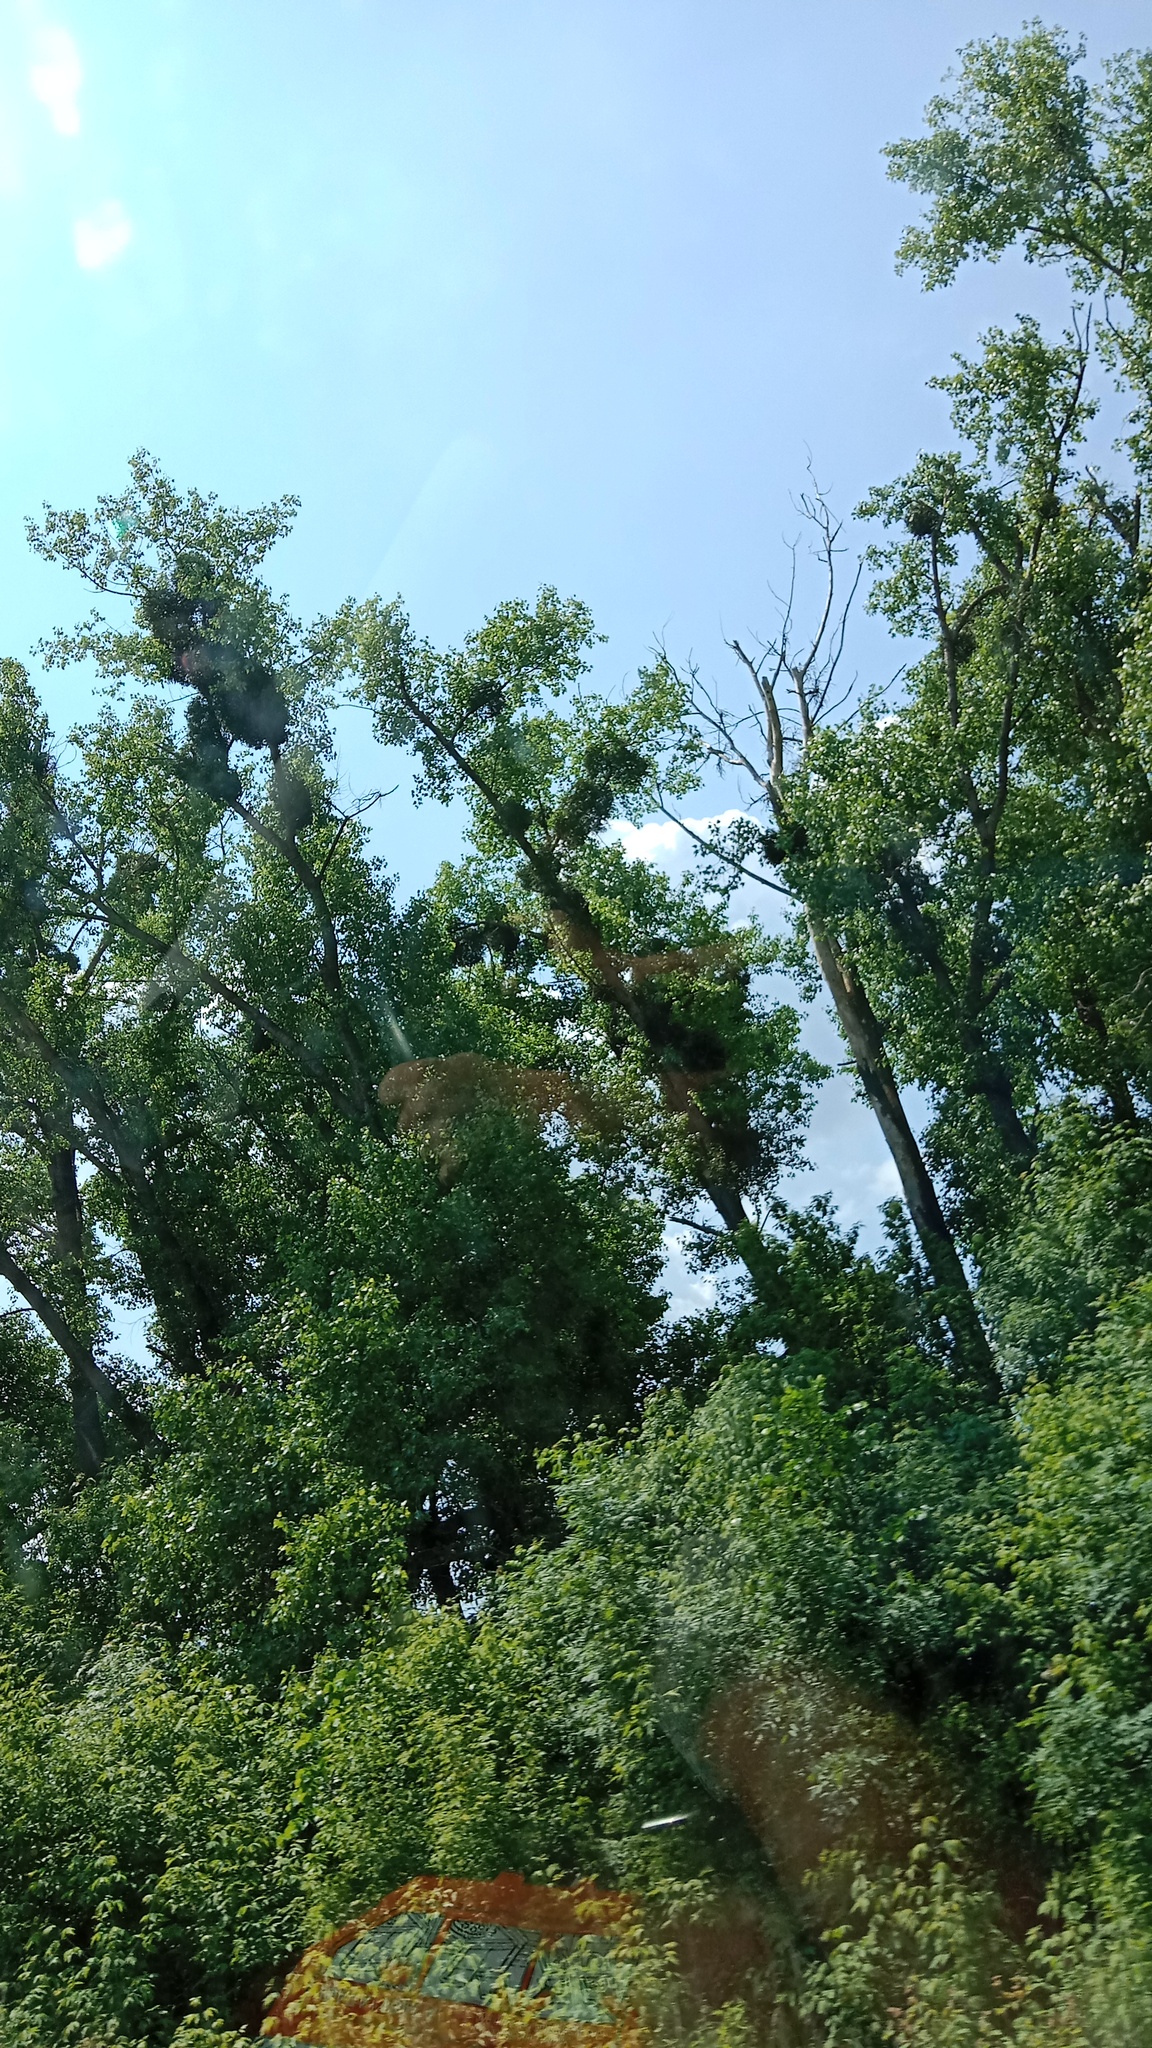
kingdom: Plantae
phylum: Tracheophyta
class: Magnoliopsida
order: Santalales
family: Viscaceae
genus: Viscum
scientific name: Viscum album
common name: Mistletoe
